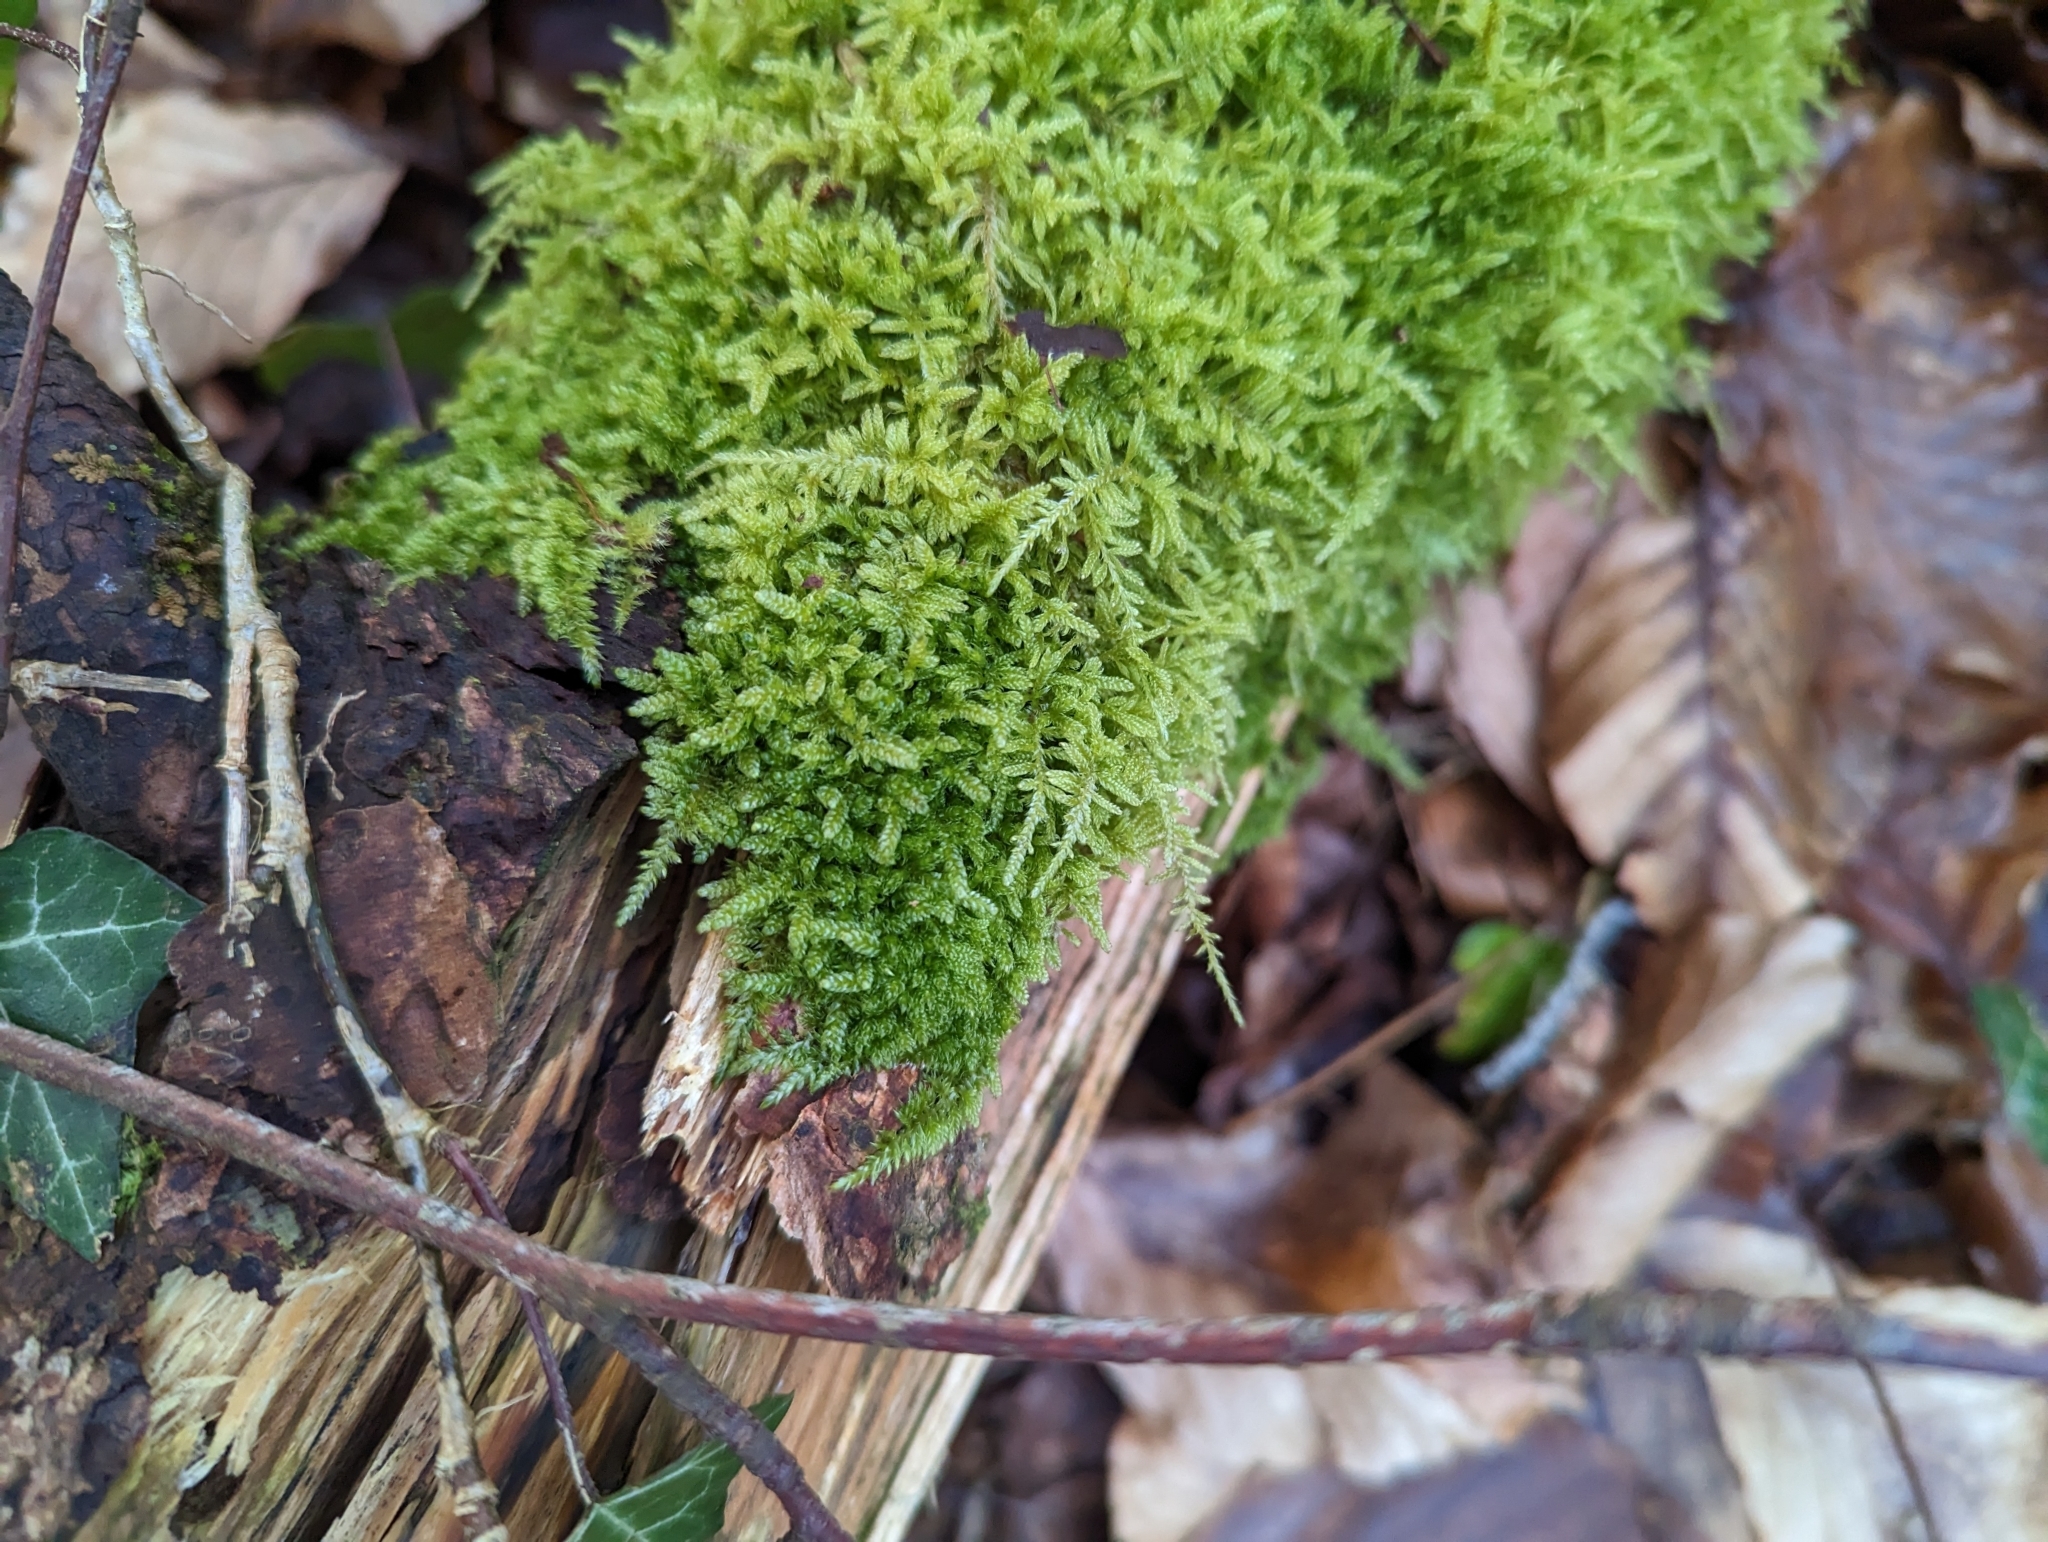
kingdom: Plantae
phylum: Bryophyta
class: Bryopsida
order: Hypnales
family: Hypnaceae
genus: Hypnum
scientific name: Hypnum cupressiforme
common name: Cypress-leaved plait-moss
